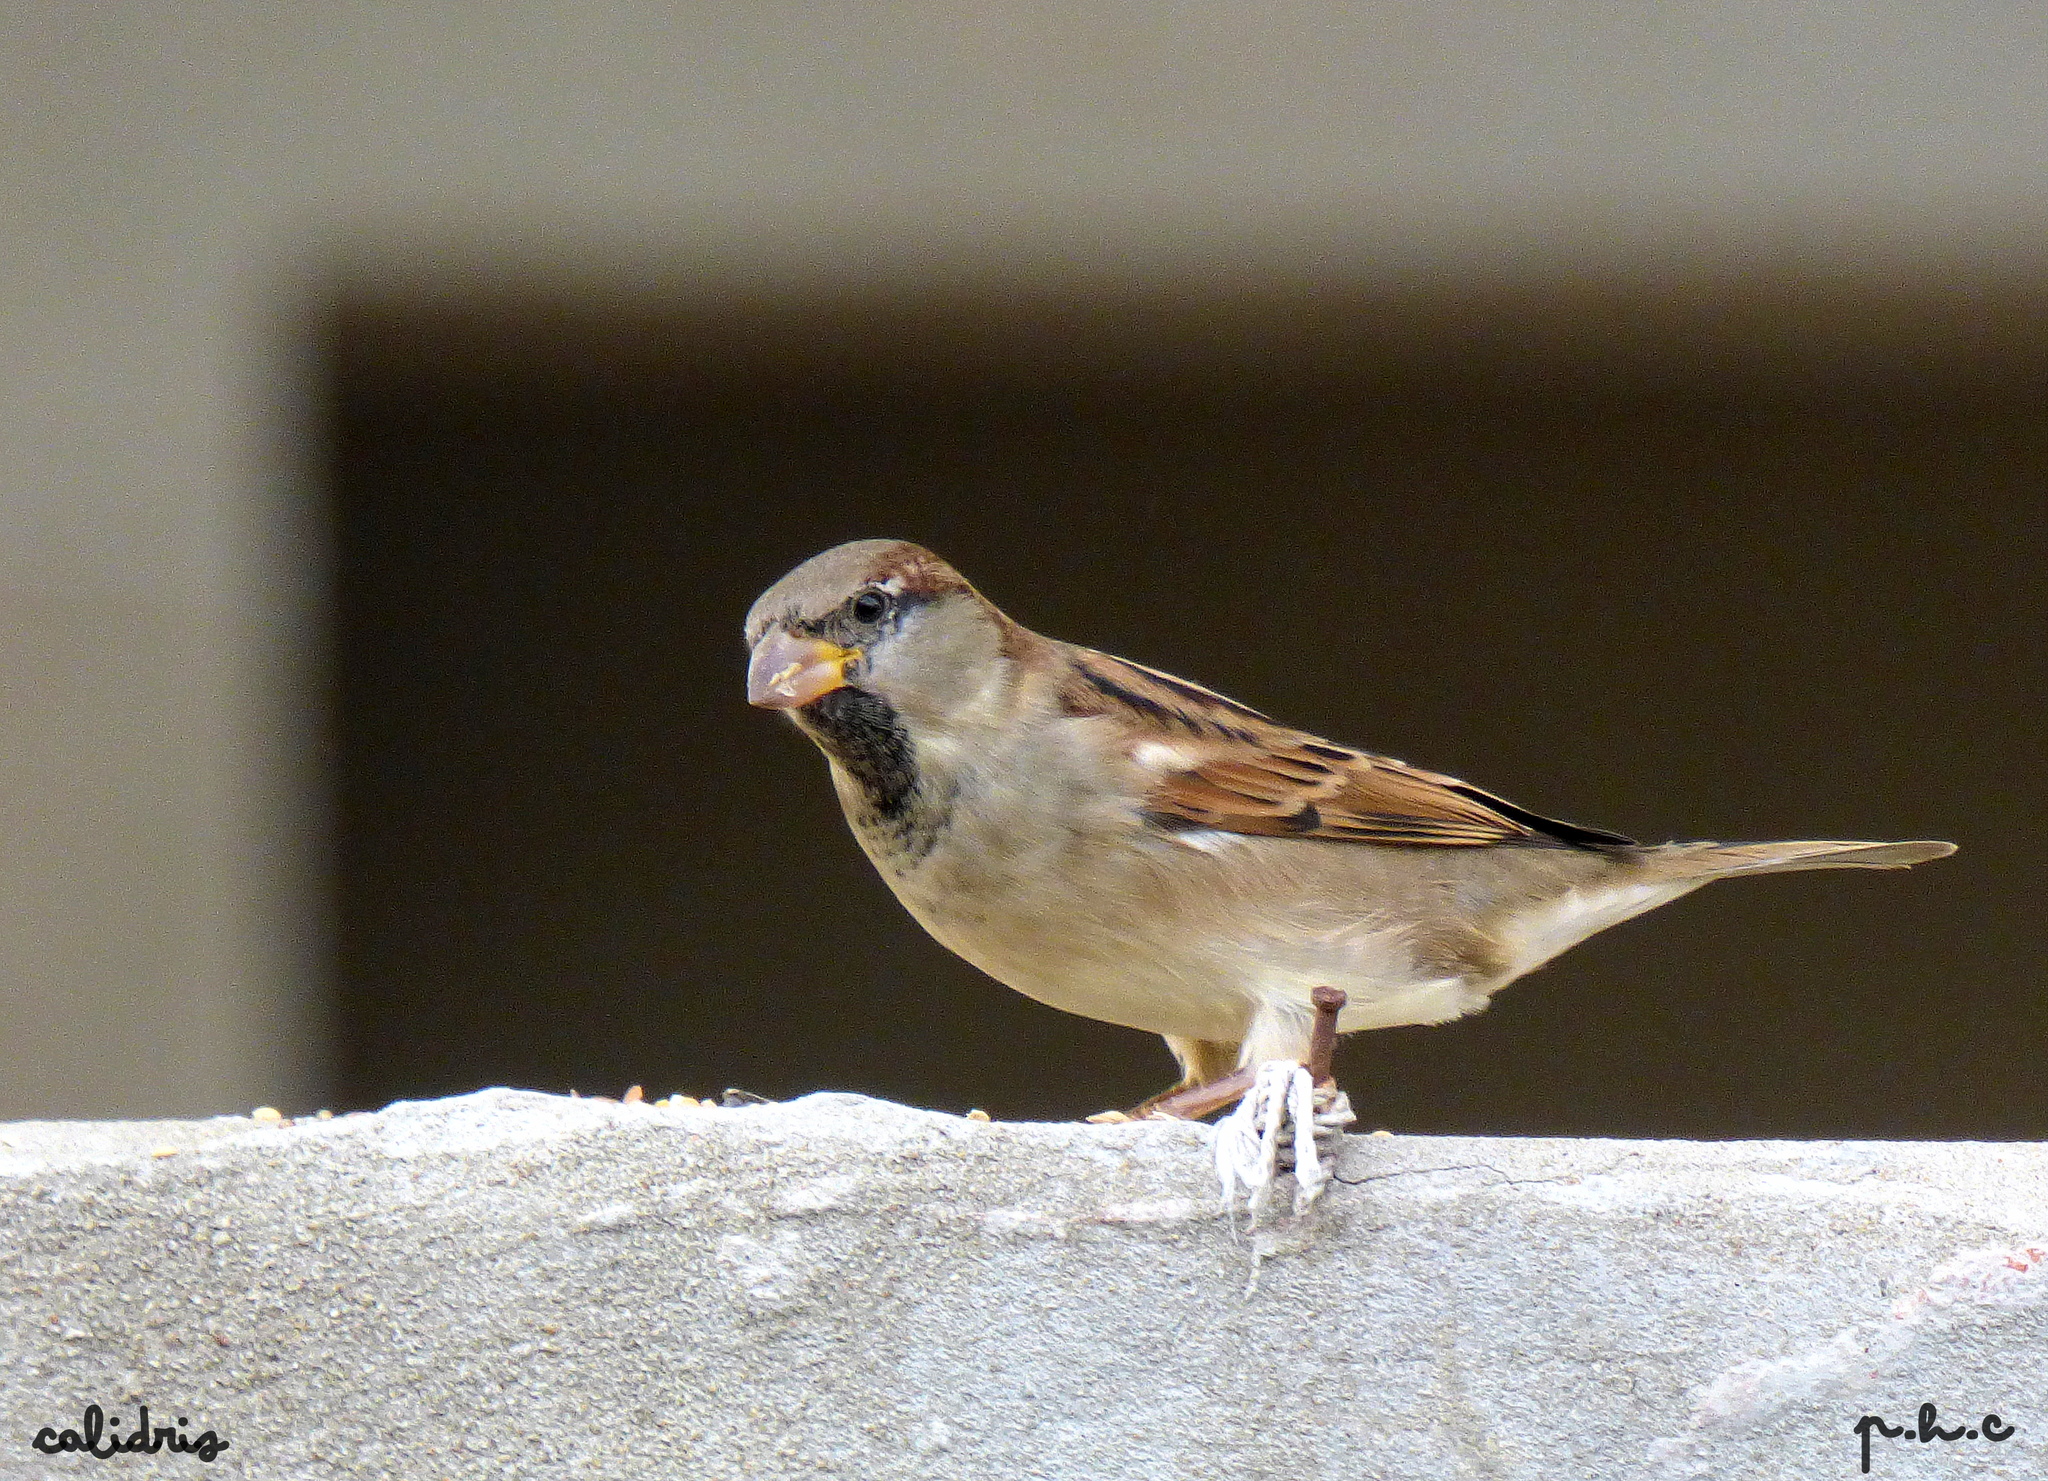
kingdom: Animalia
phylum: Chordata
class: Aves
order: Passeriformes
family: Passeridae
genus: Passer
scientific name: Passer domesticus
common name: House sparrow
